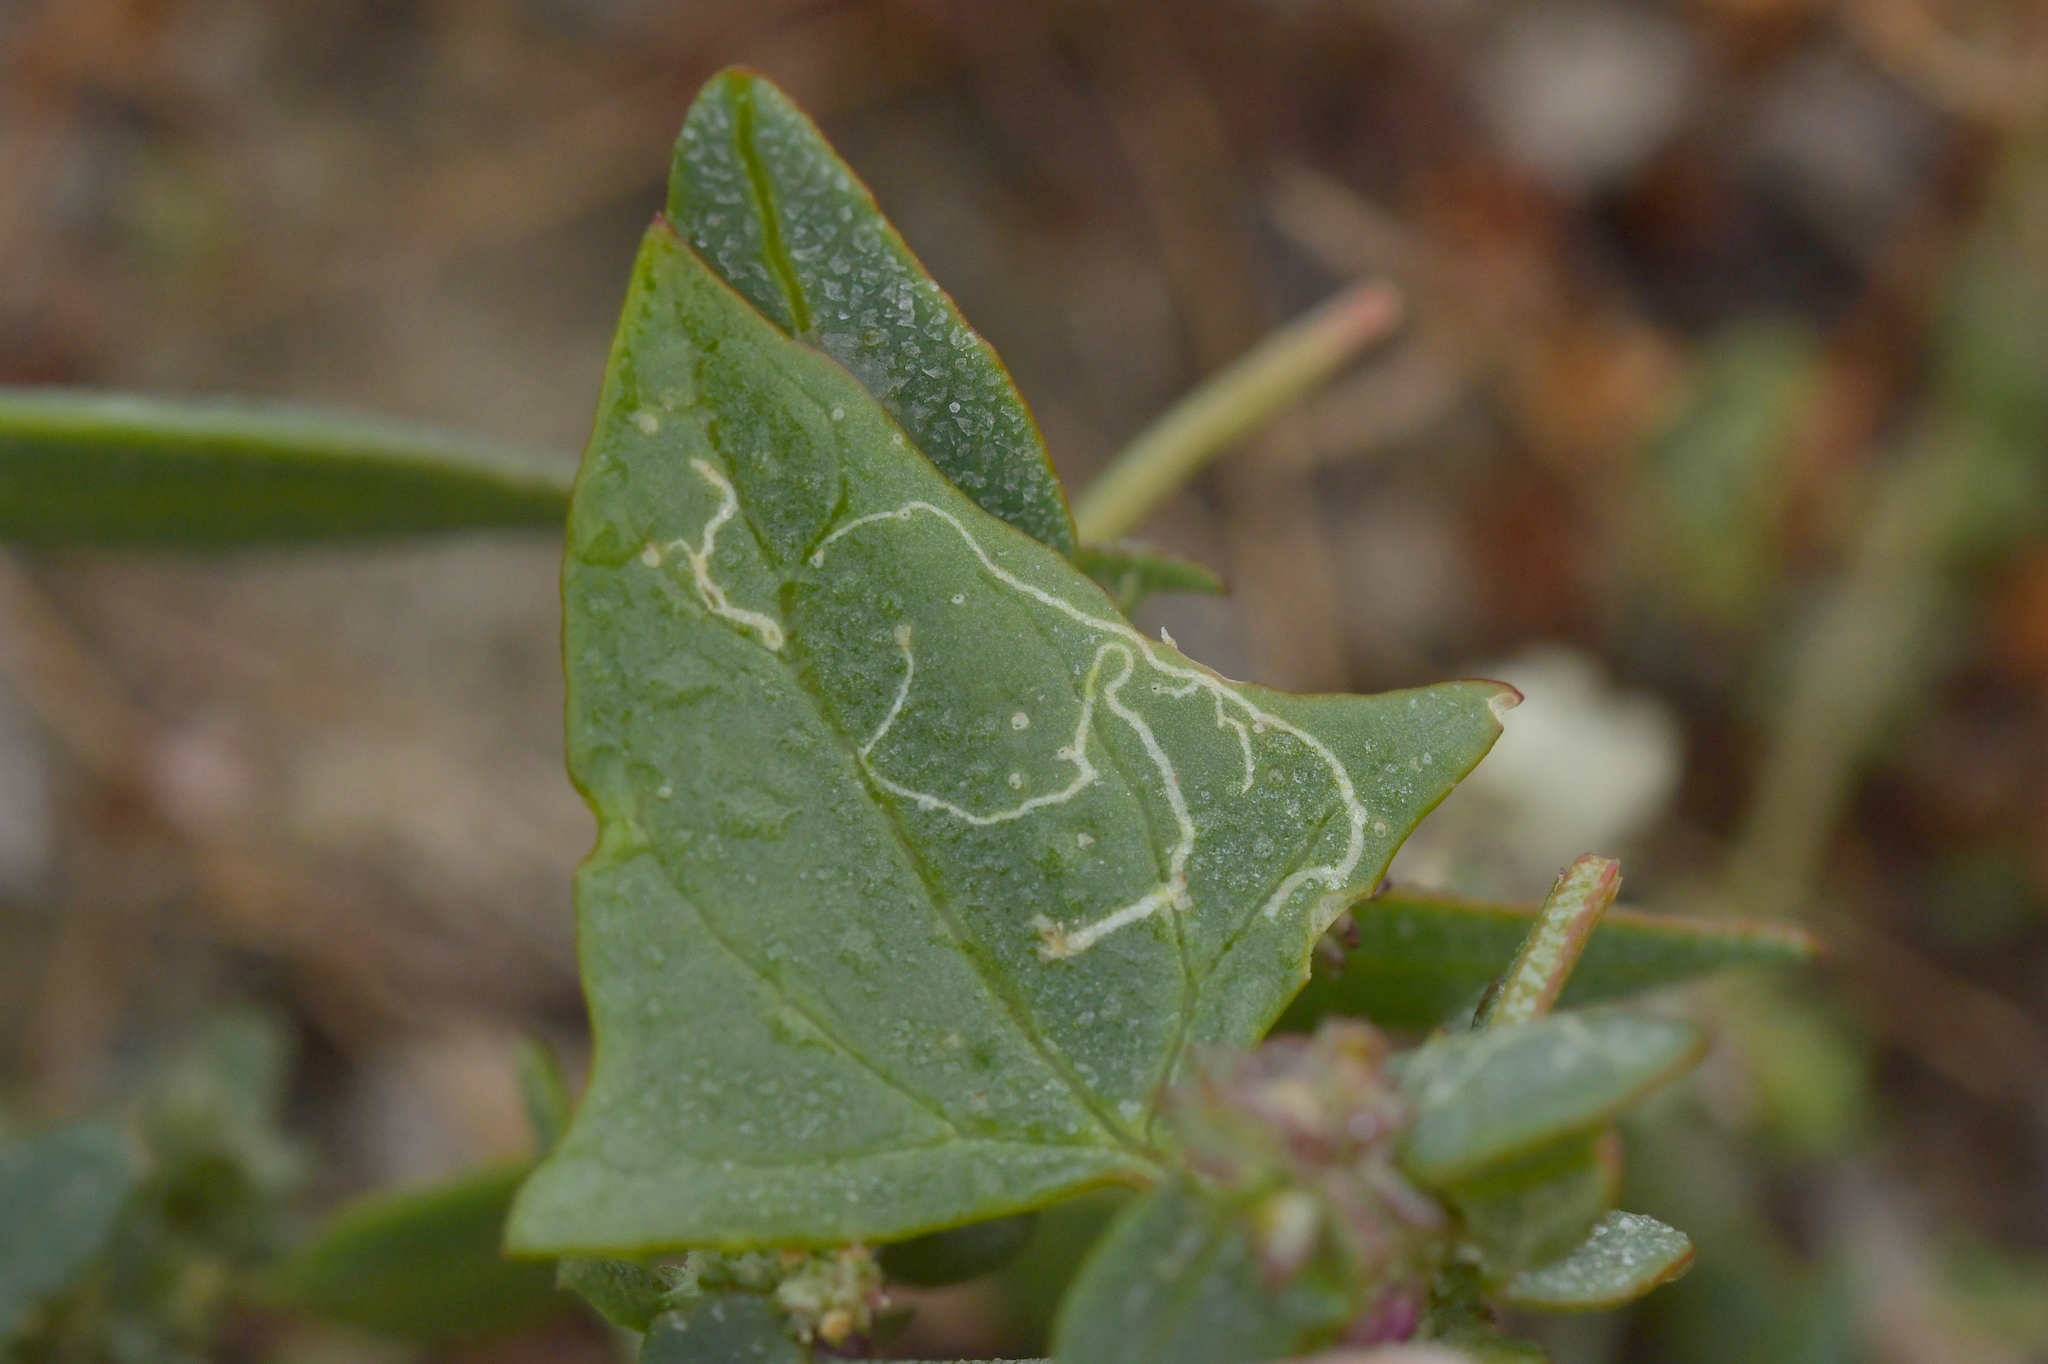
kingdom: Animalia
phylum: Arthropoda
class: Insecta
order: Diptera
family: Agromyzidae
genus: Liriomyza
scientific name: Liriomyza chenopodii
